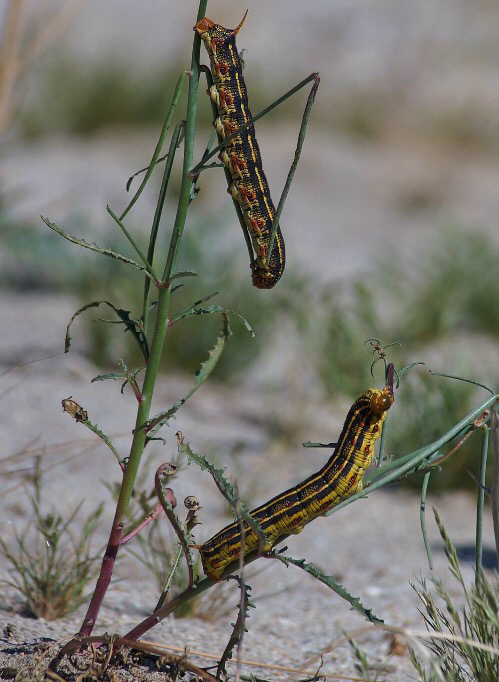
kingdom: Animalia
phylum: Arthropoda
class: Insecta
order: Lepidoptera
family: Sphingidae
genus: Hyles
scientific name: Hyles lineata
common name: White-lined sphinx
